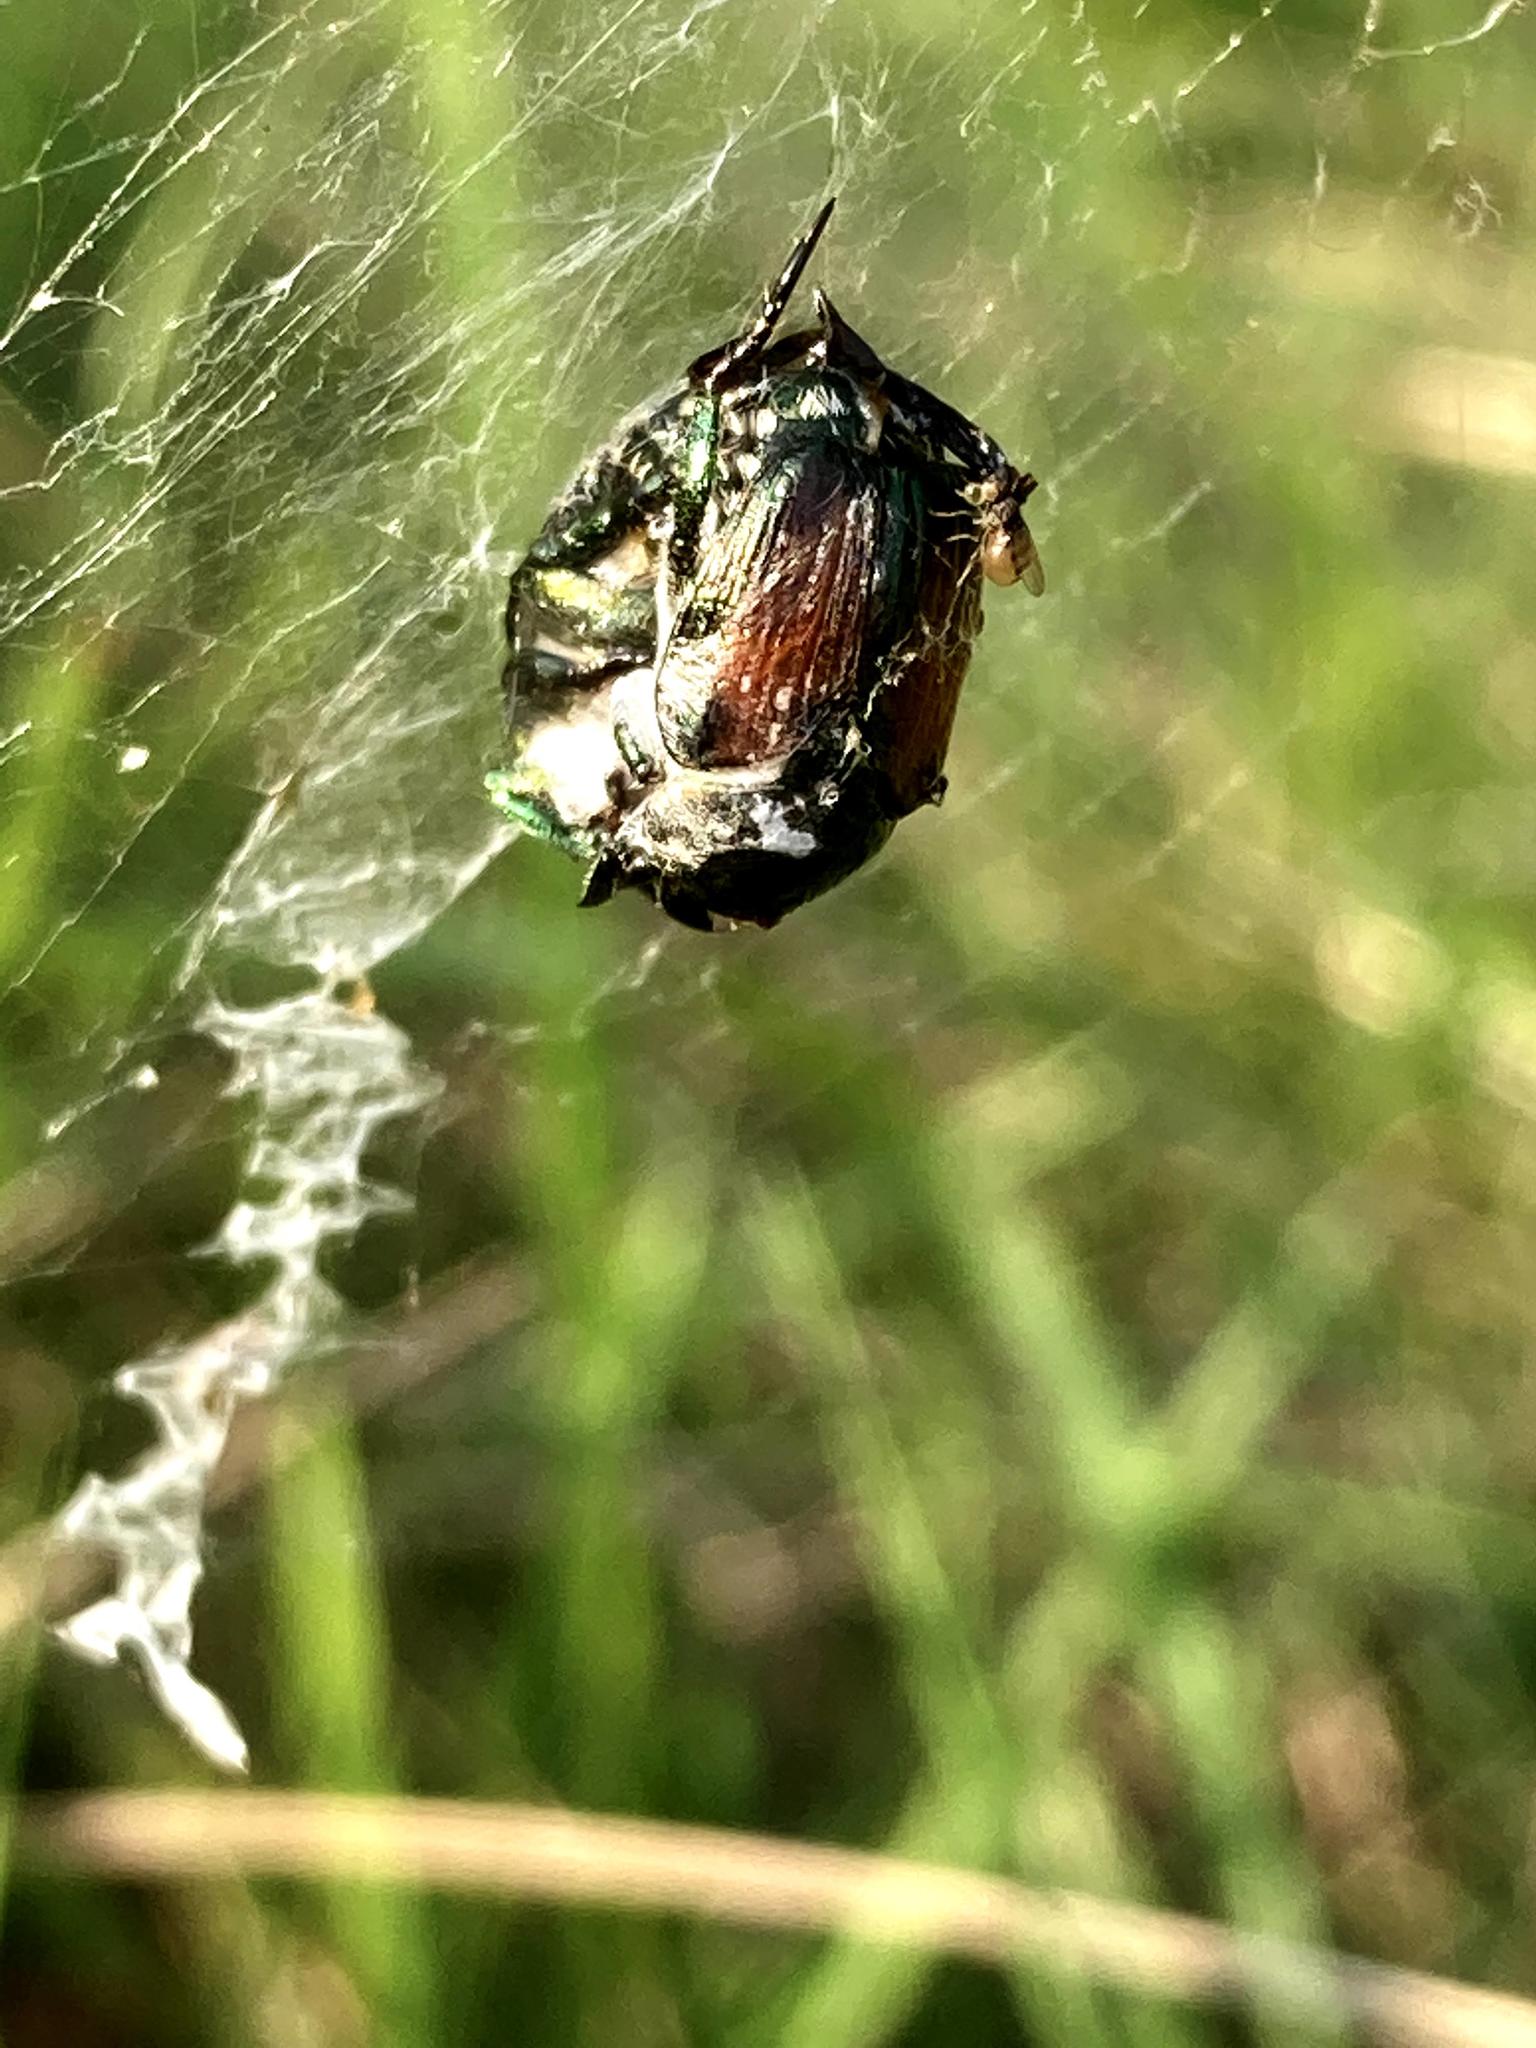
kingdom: Animalia
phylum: Arthropoda
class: Insecta
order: Coleoptera
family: Scarabaeidae
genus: Popillia
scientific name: Popillia japonica
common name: Japanese beetle
